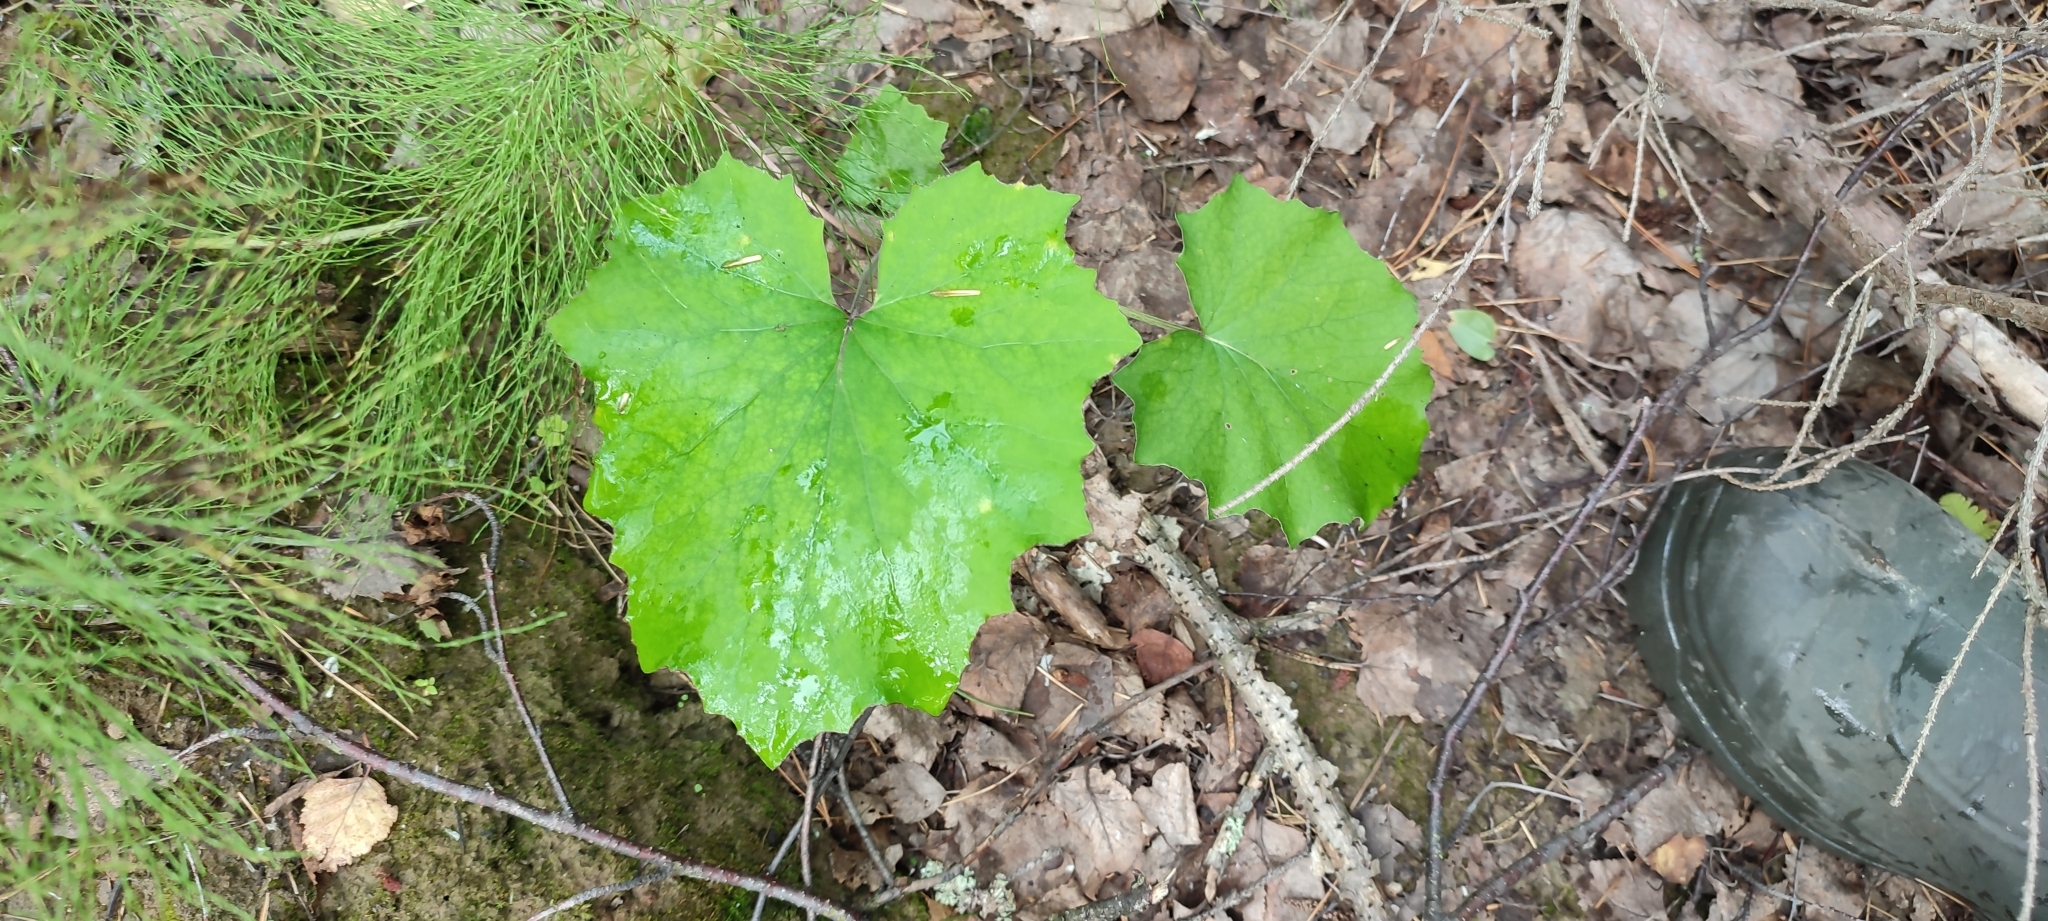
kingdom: Plantae
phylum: Tracheophyta
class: Magnoliopsida
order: Asterales
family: Asteraceae
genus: Tussilago
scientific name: Tussilago farfara
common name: Coltsfoot
